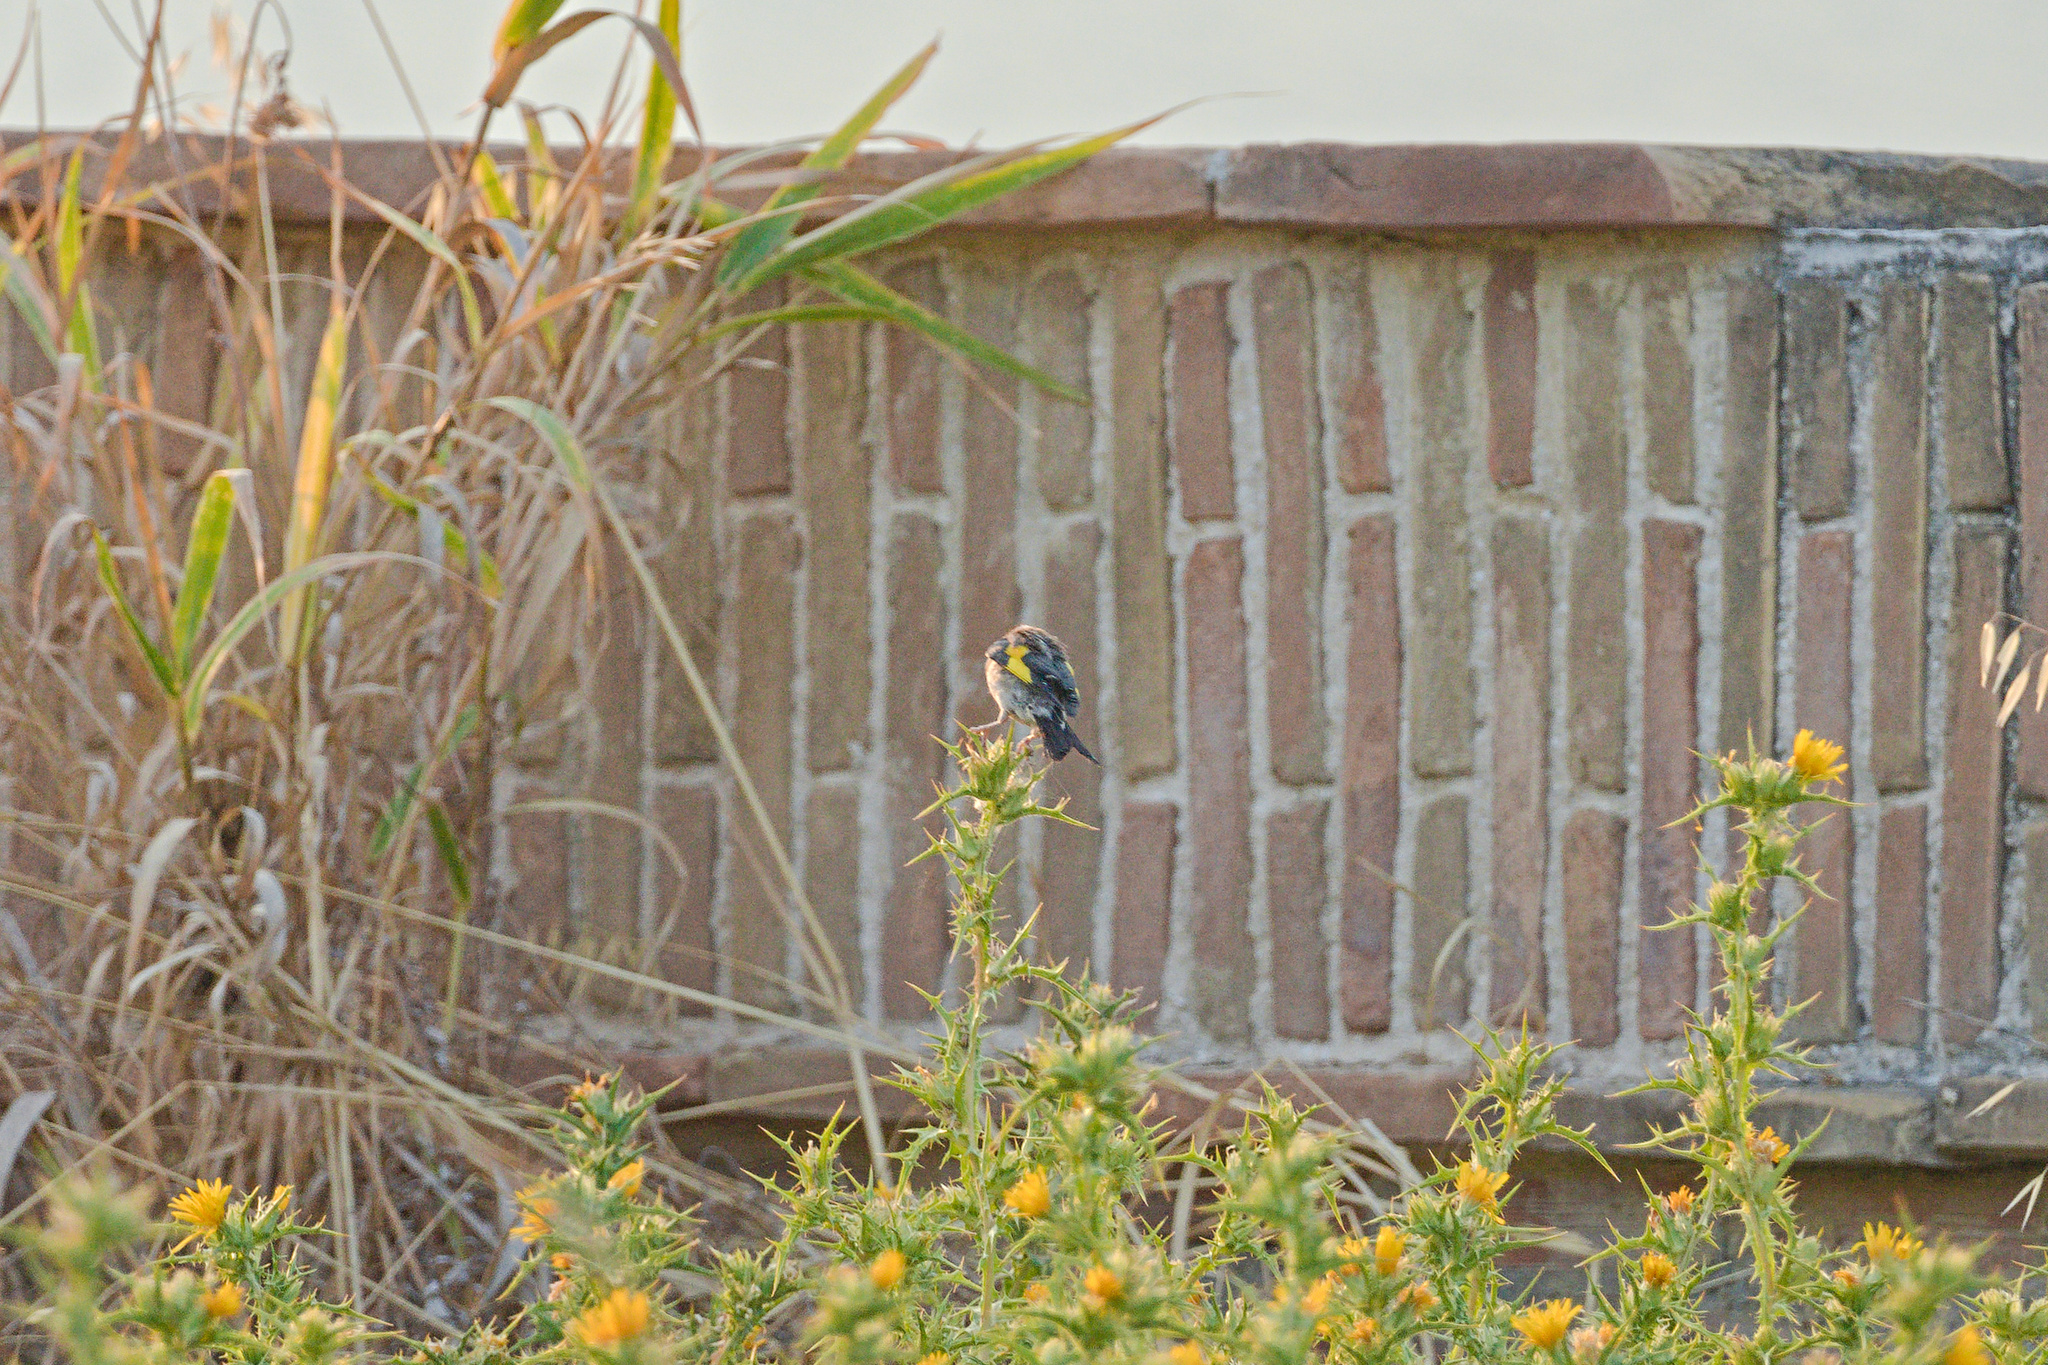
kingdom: Plantae
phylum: Tracheophyta
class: Magnoliopsida
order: Asterales
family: Asteraceae
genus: Scolymus
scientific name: Scolymus hispanicus
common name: Golden thistle
